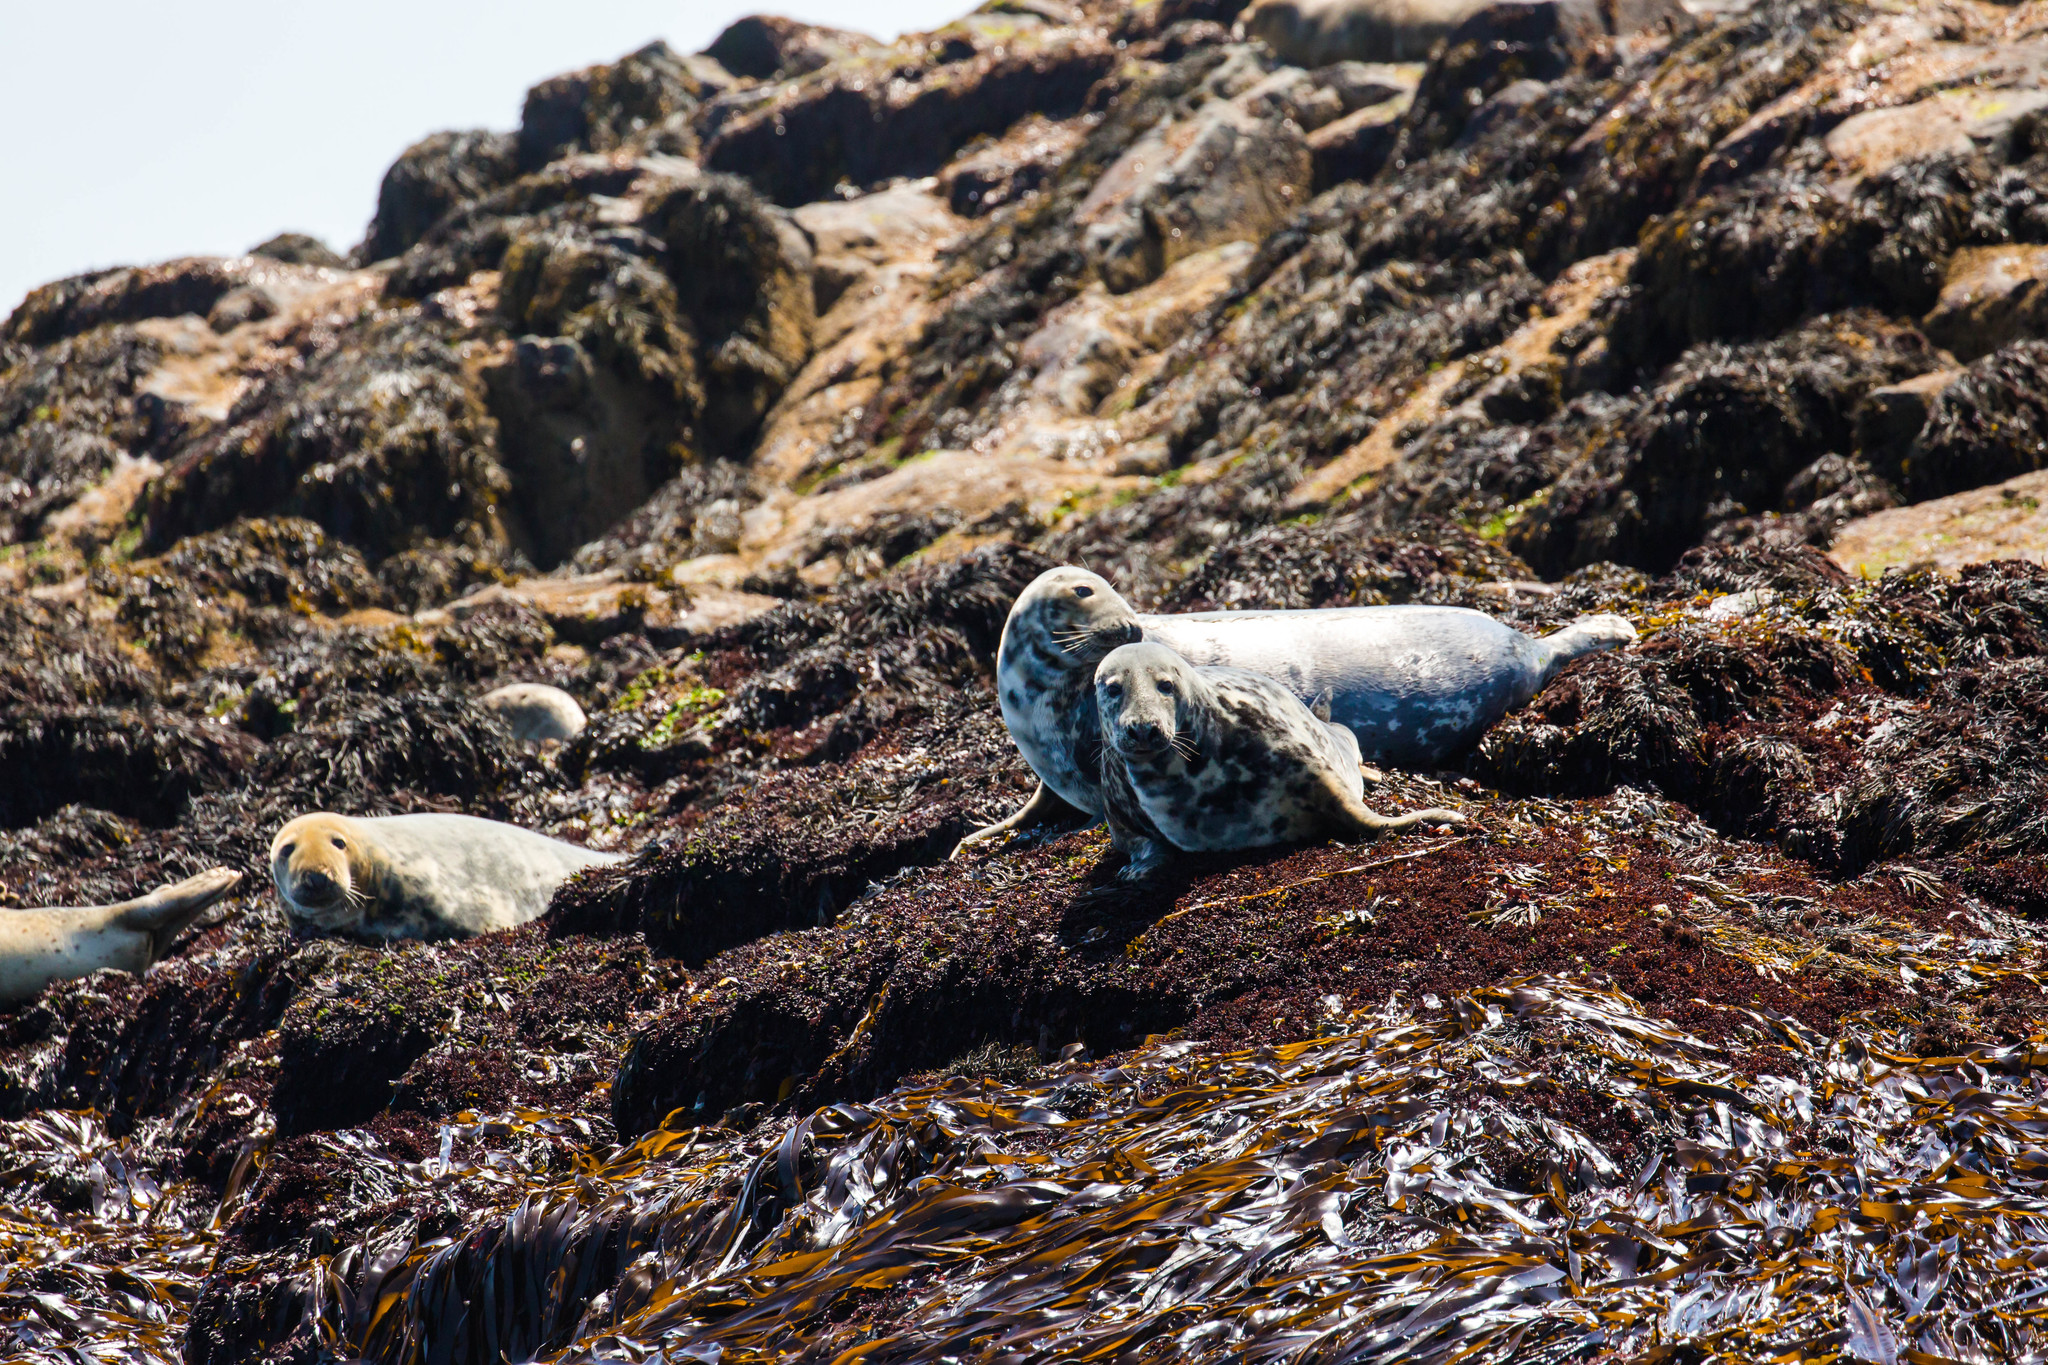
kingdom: Animalia
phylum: Chordata
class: Mammalia
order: Carnivora
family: Phocidae
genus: Halichoerus
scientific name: Halichoerus grypus
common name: Grey seal
